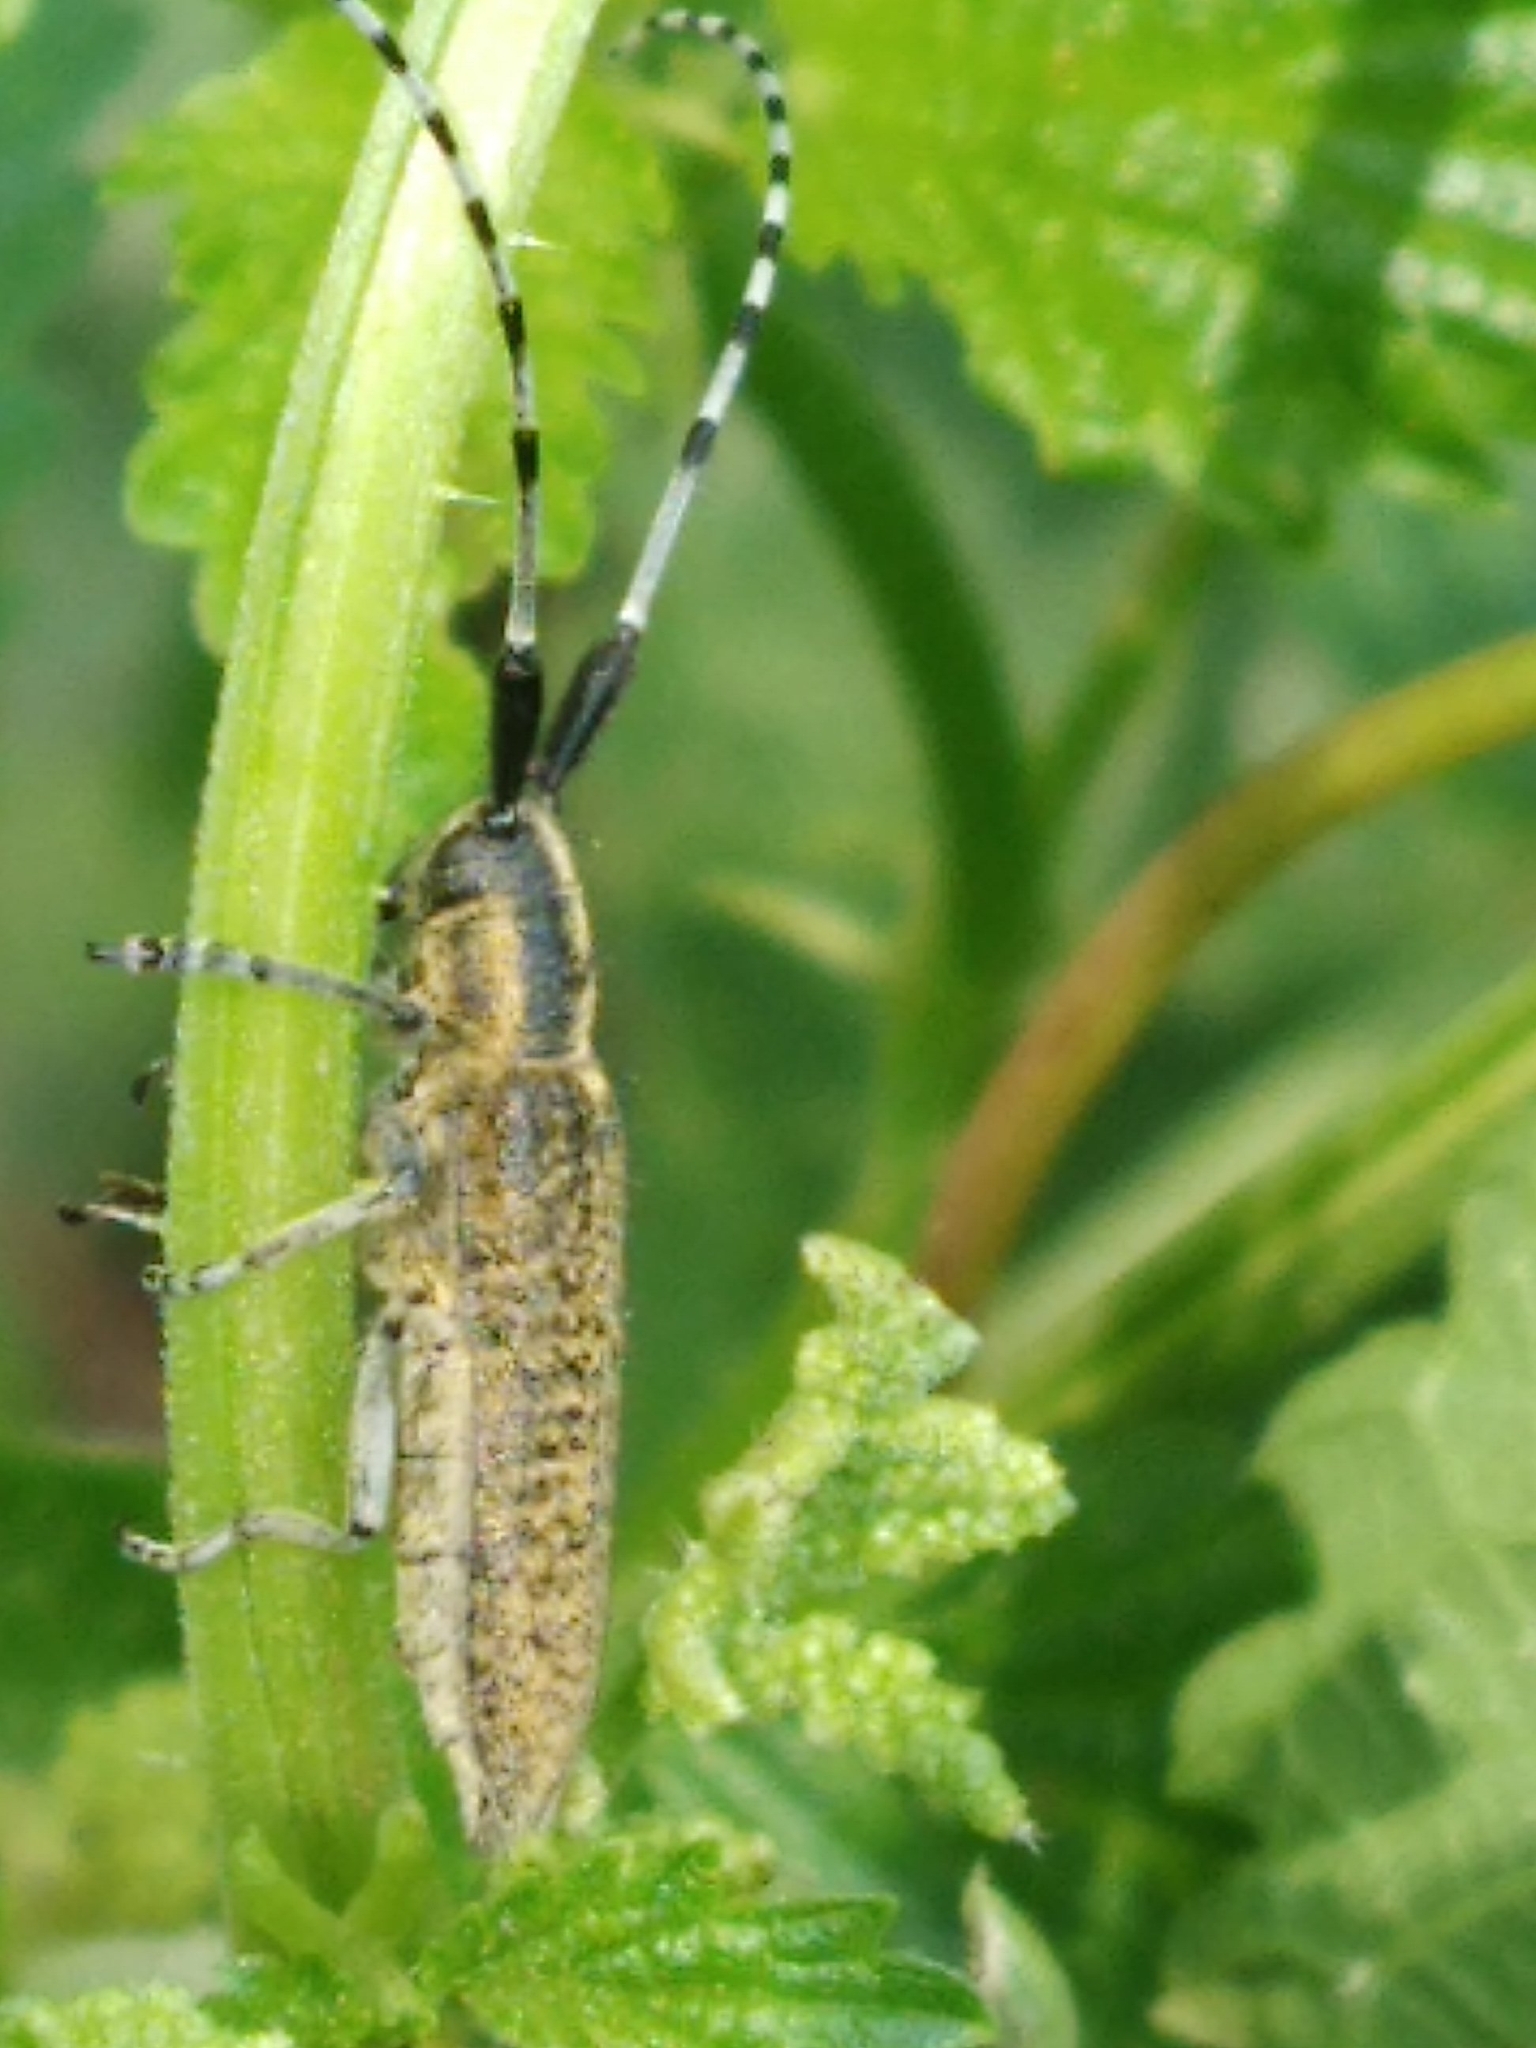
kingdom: Animalia
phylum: Arthropoda
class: Insecta
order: Coleoptera
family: Cerambycidae
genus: Agapanthia
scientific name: Agapanthia villosoviridescens
